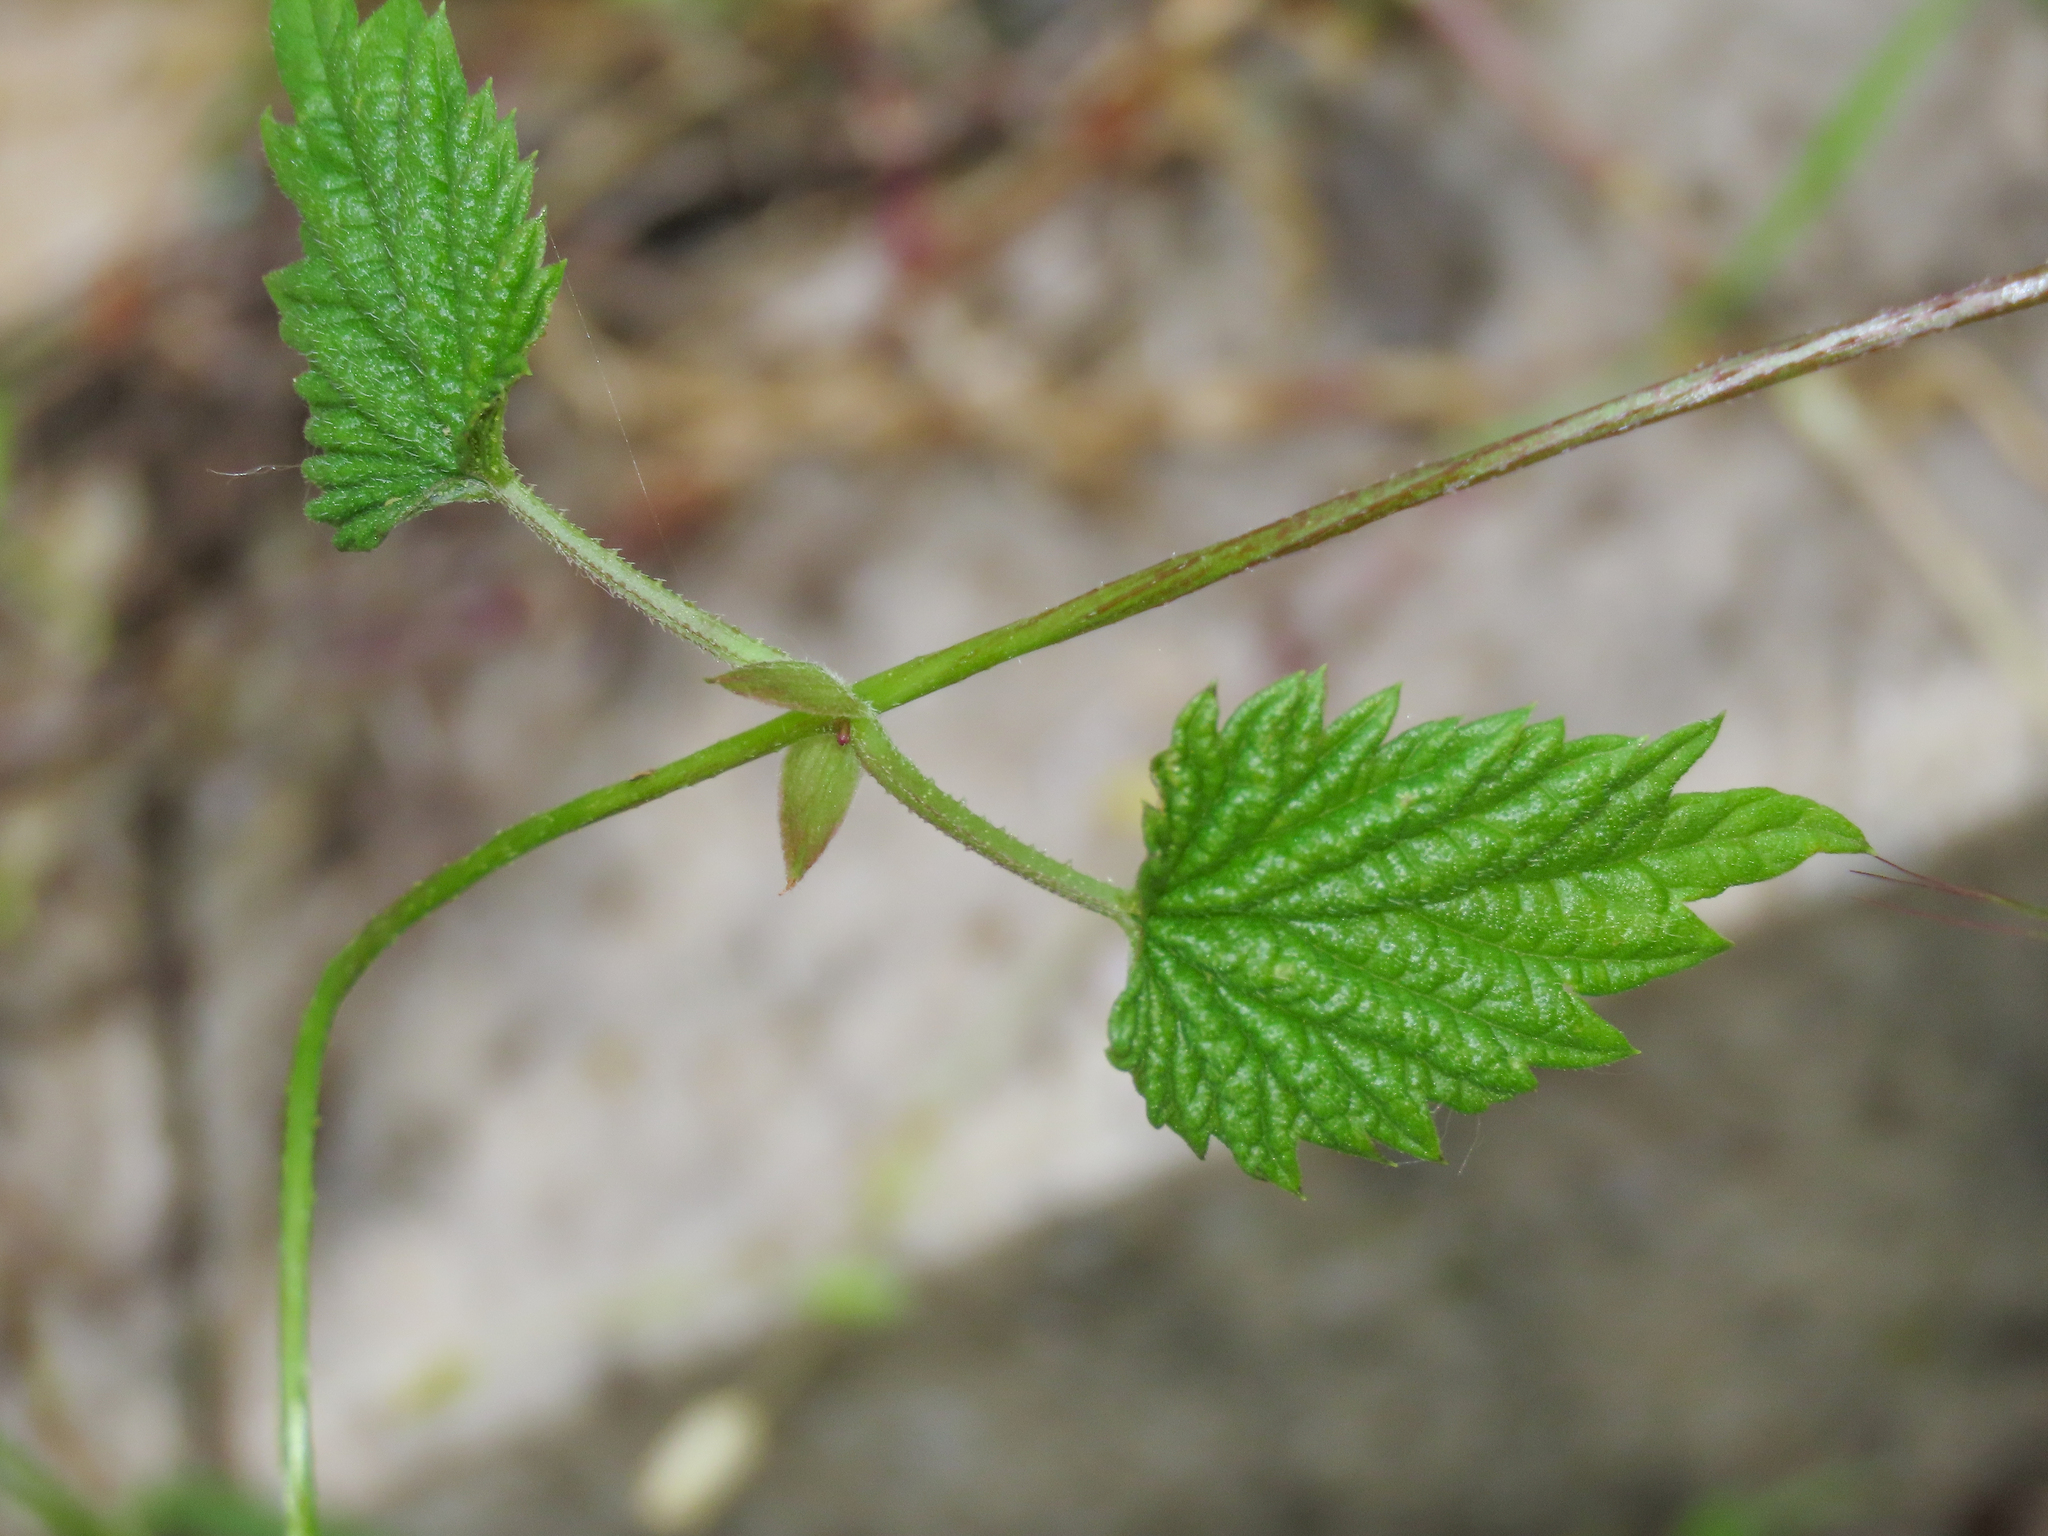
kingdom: Plantae
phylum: Tracheophyta
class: Magnoliopsida
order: Rosales
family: Cannabaceae
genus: Humulus
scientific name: Humulus lupulus
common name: Hop
